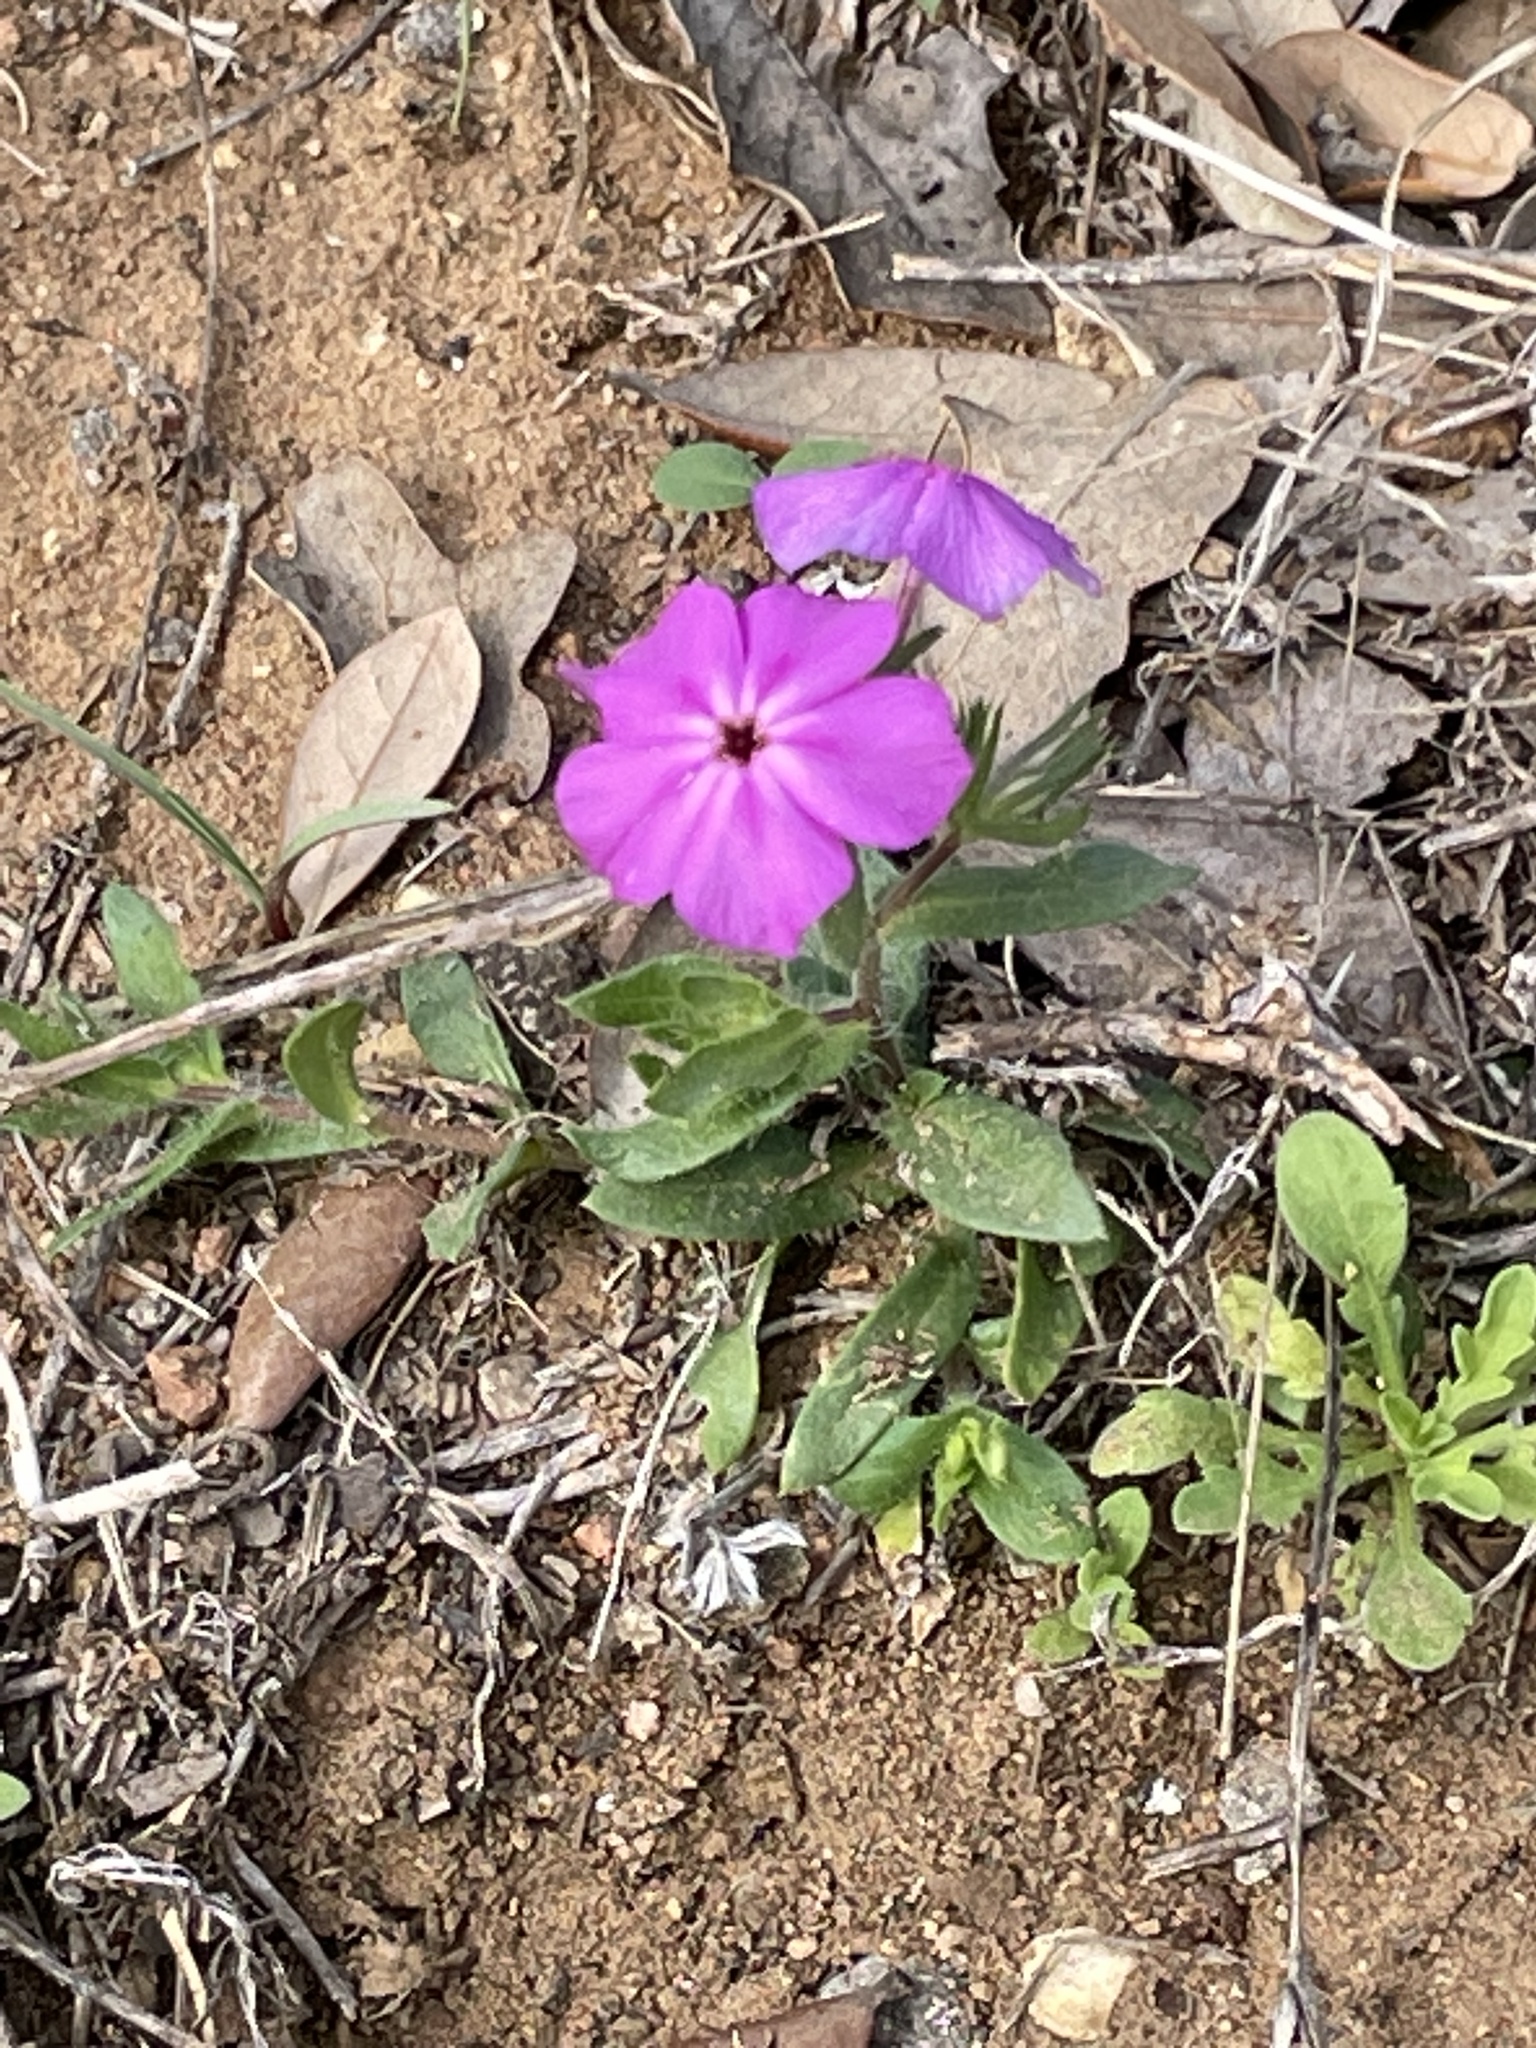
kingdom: Plantae
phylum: Tracheophyta
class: Magnoliopsida
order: Ericales
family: Polemoniaceae
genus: Phlox
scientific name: Phlox drummondii
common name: Drummond's phlox
